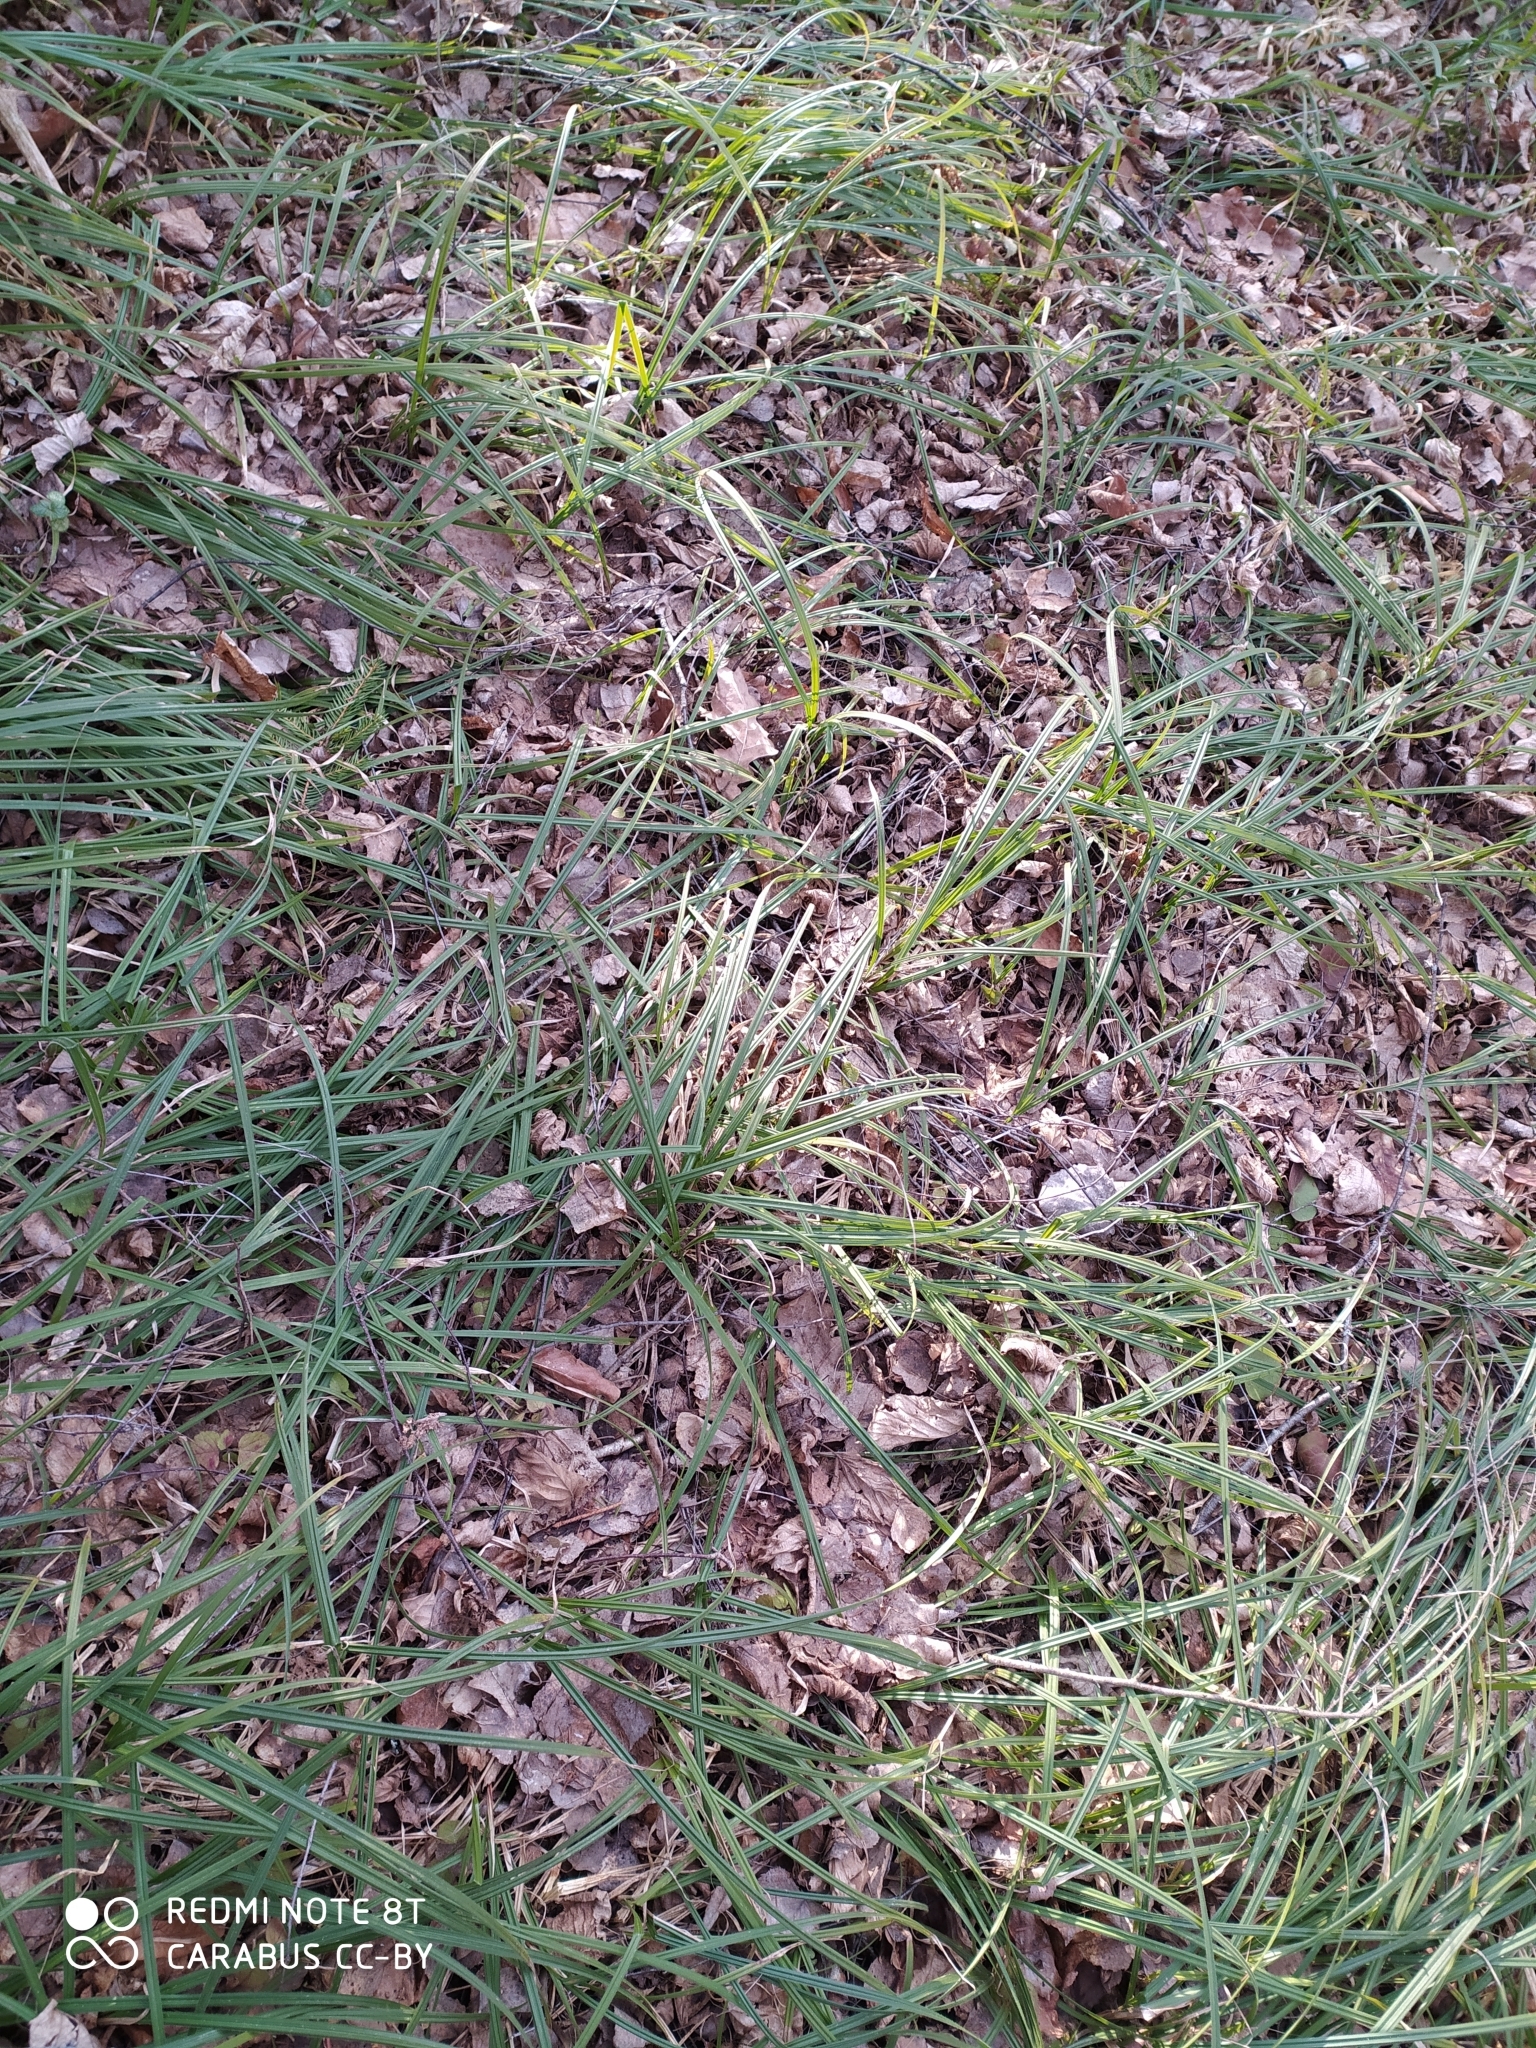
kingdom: Plantae
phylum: Tracheophyta
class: Liliopsida
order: Poales
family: Cyperaceae
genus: Carex
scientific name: Carex pilosa
